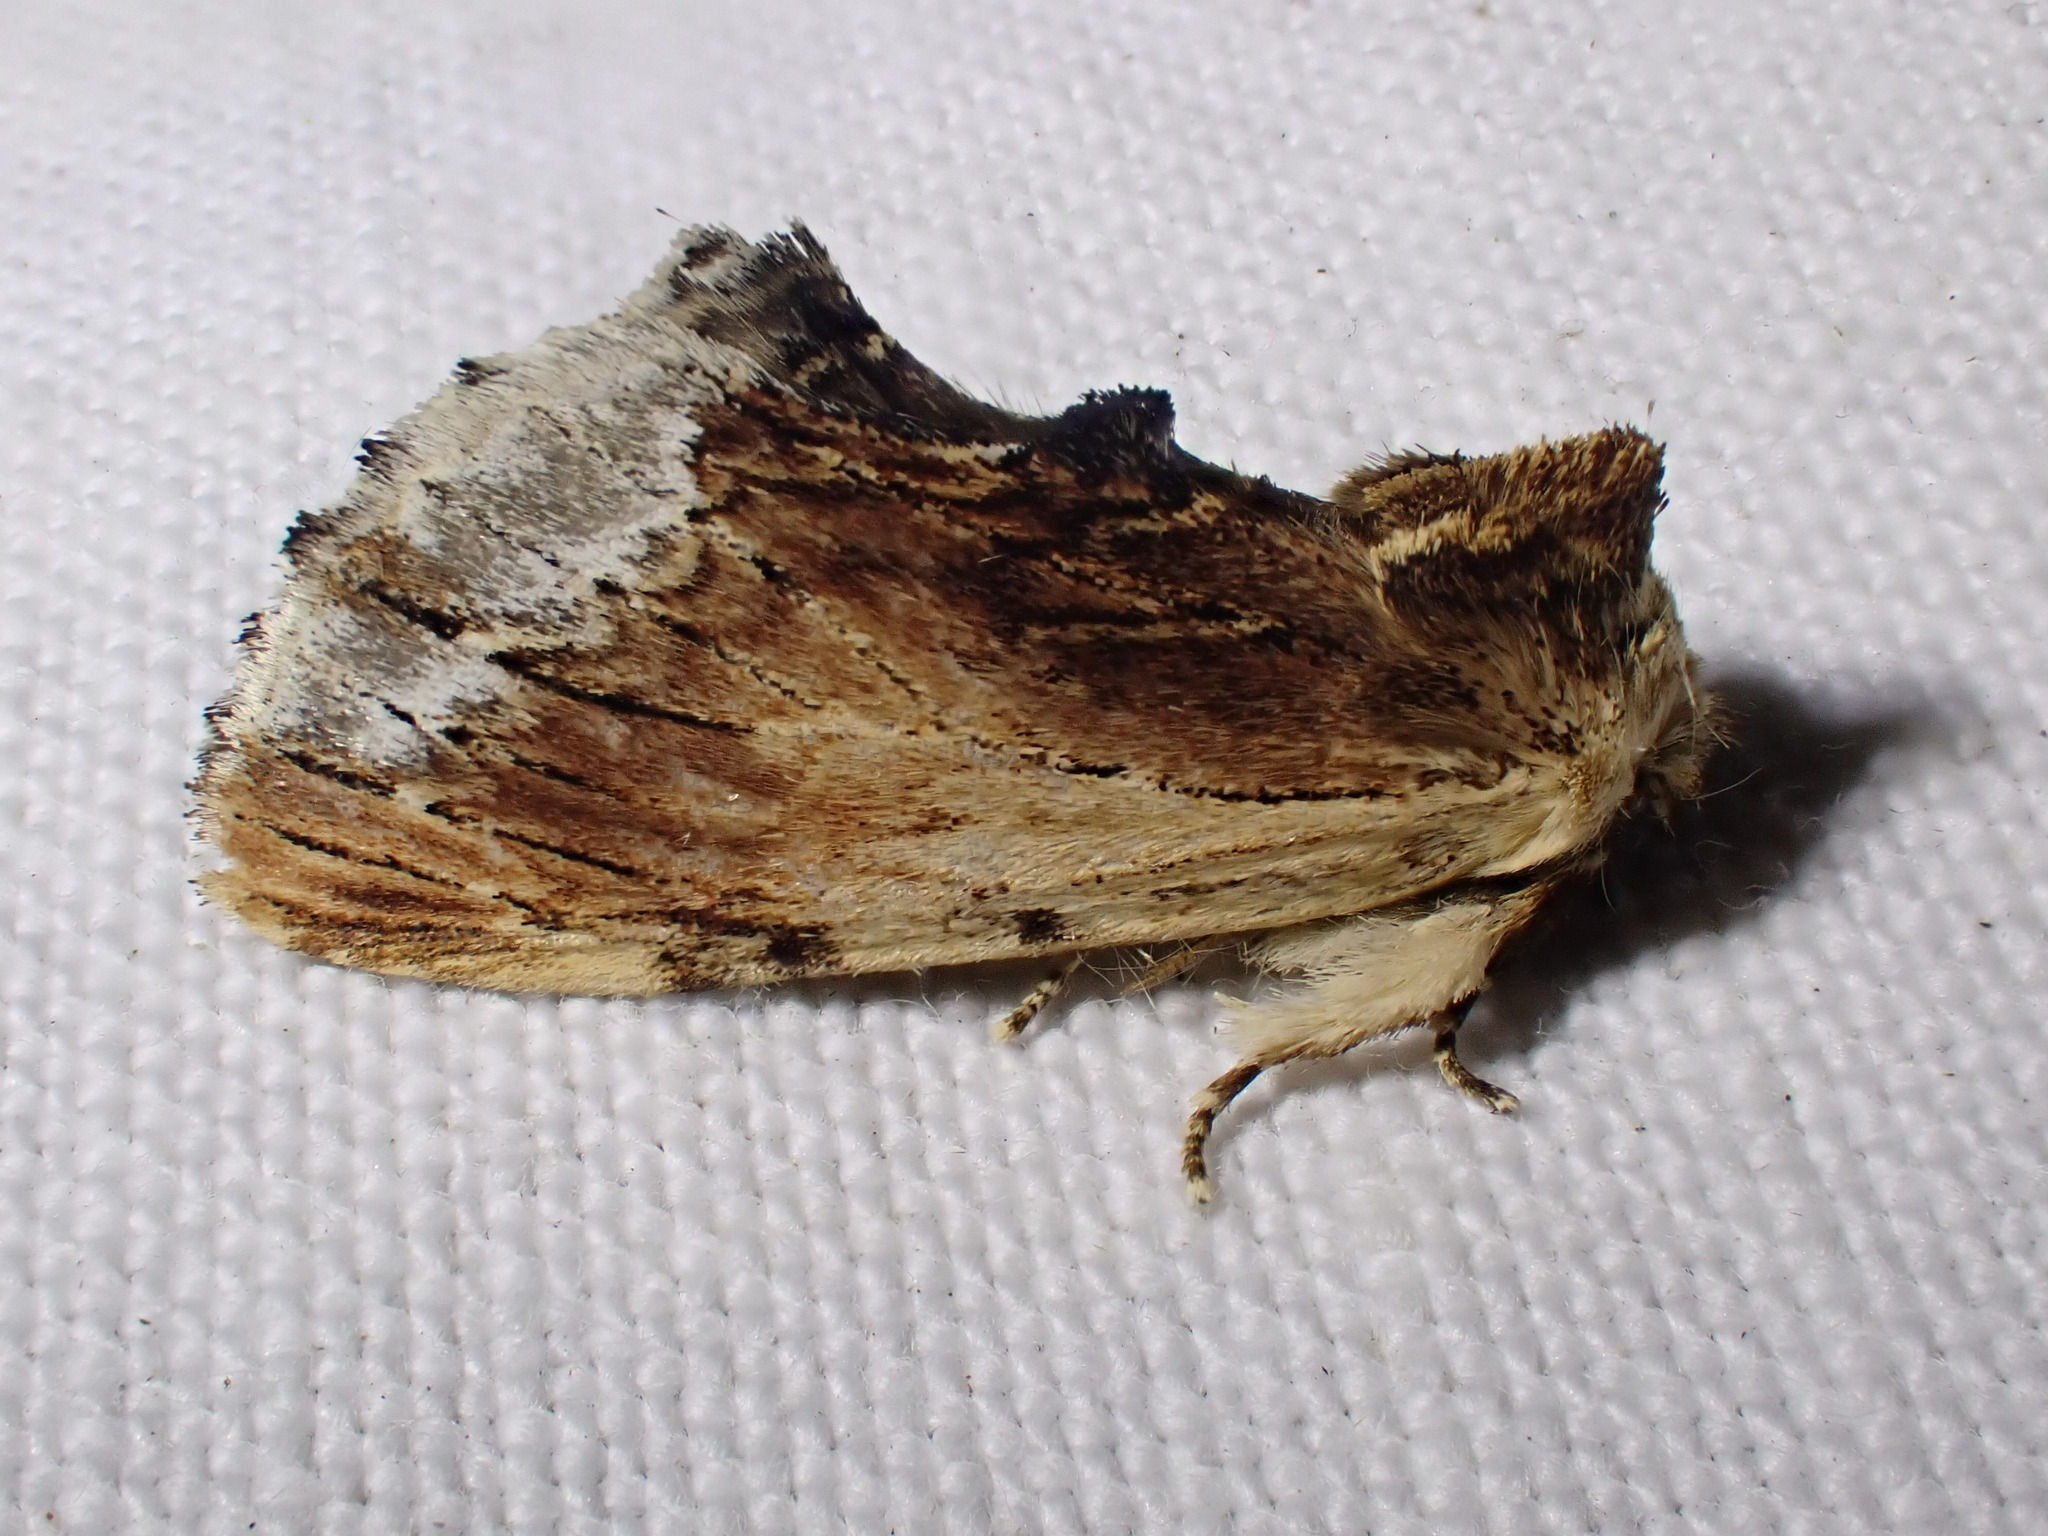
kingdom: Animalia
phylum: Arthropoda
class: Insecta
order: Lepidoptera
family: Notodontidae
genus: Ptilodon
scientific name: Ptilodon cucullina
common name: Maple prominent
